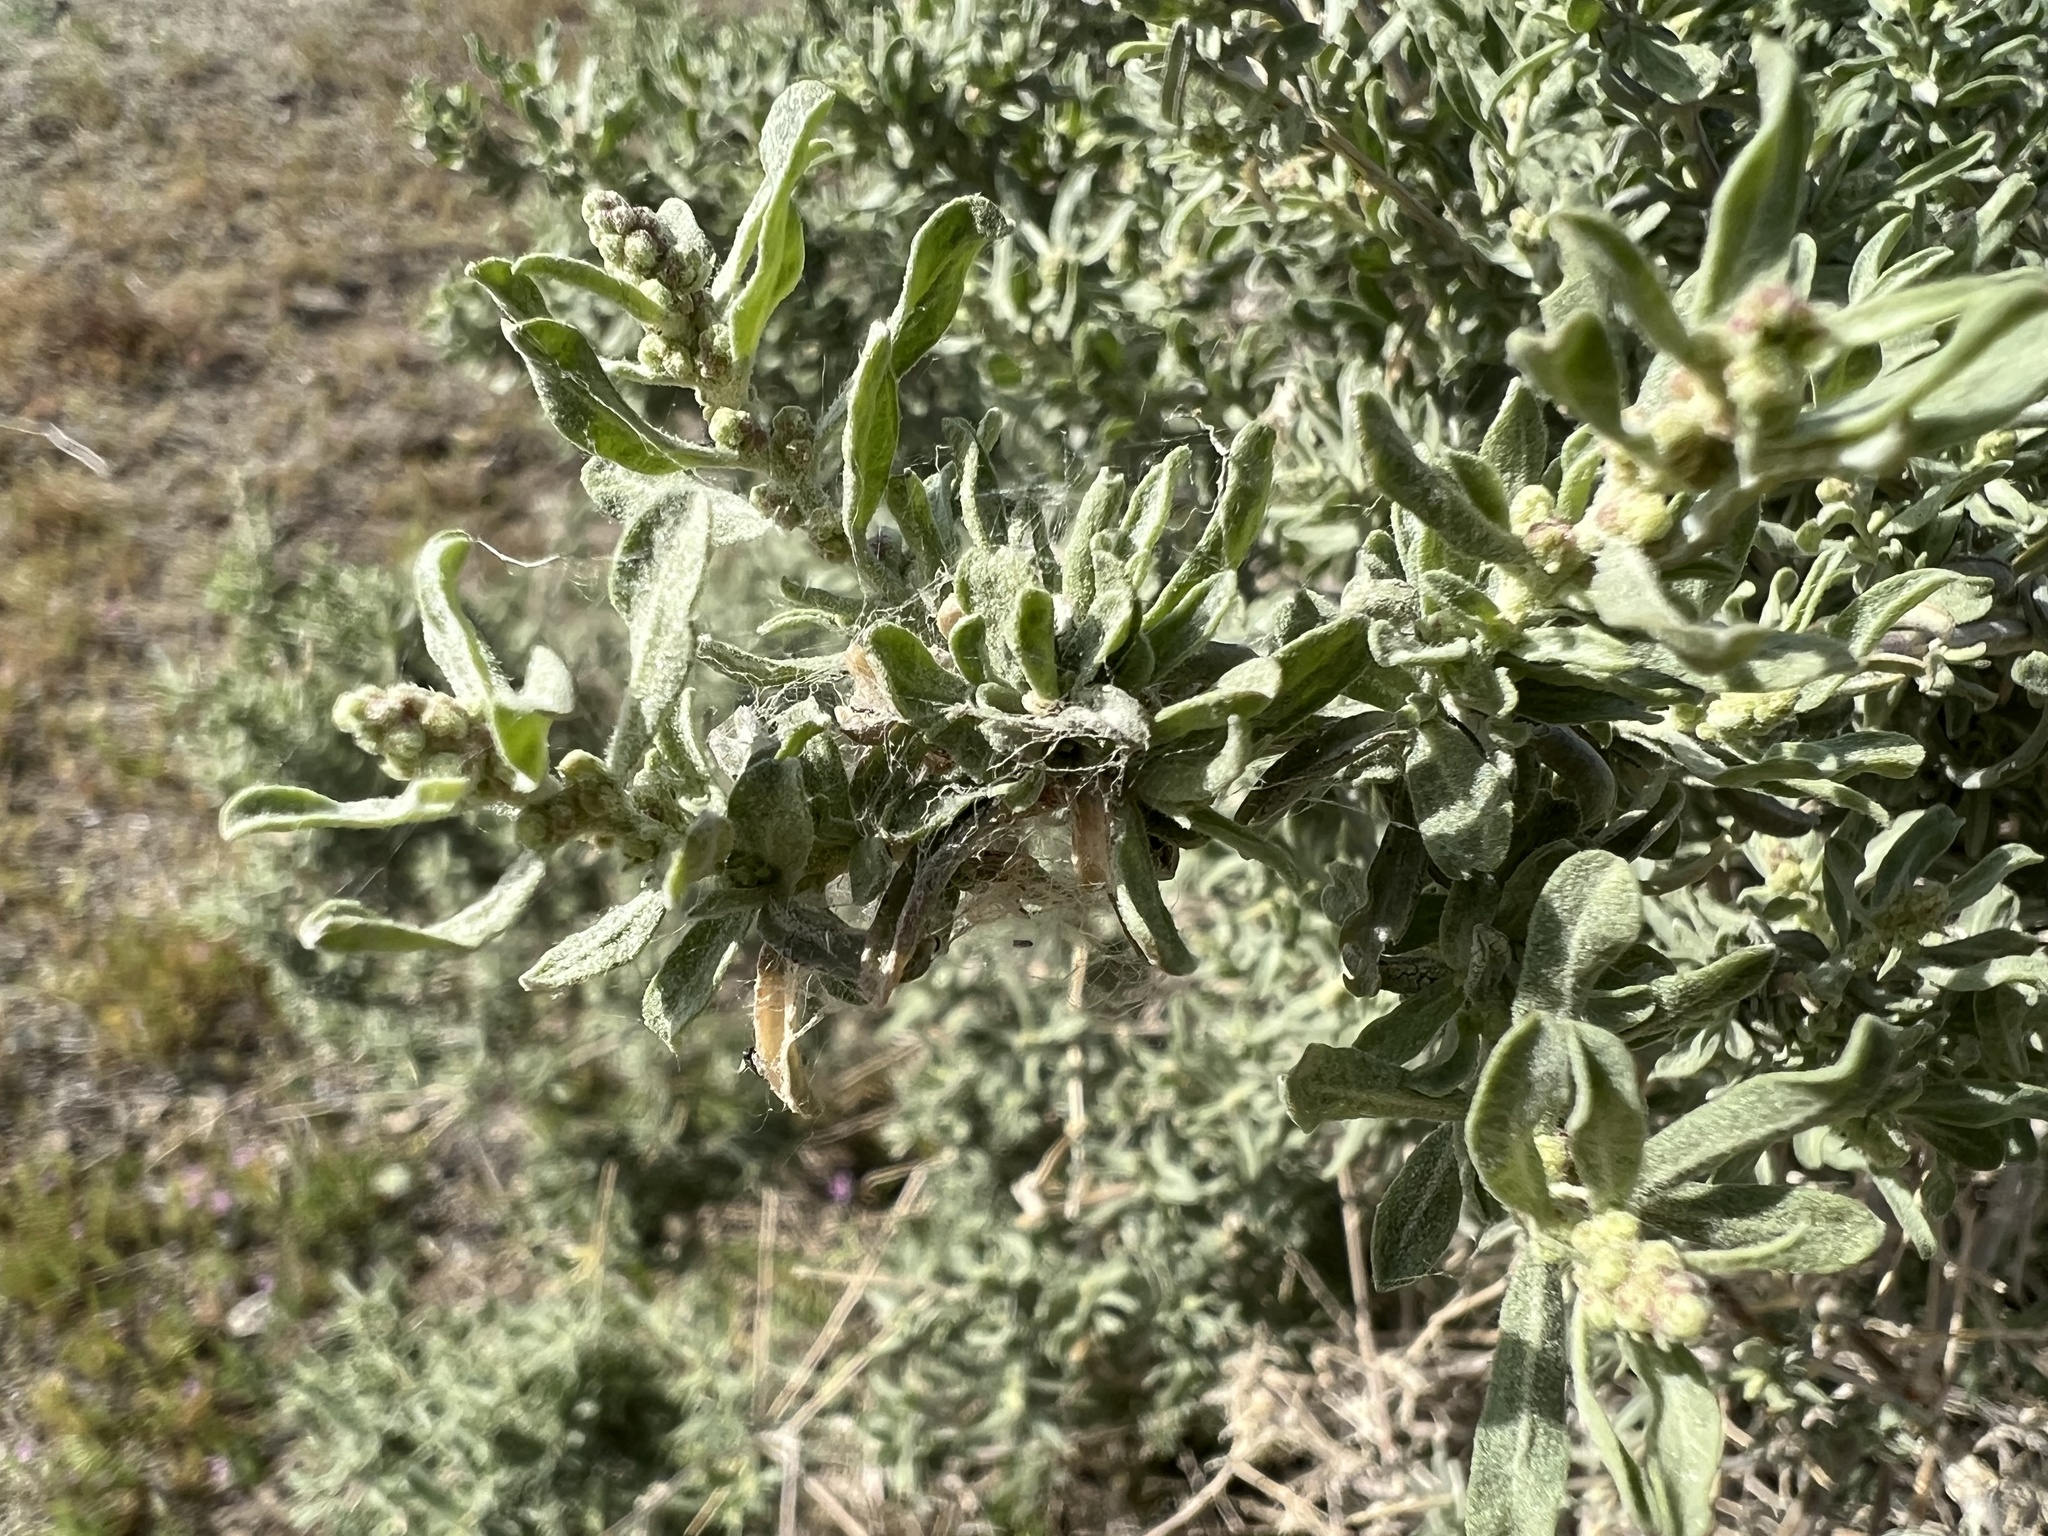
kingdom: Plantae
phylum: Tracheophyta
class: Magnoliopsida
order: Caryophyllales
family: Amaranthaceae
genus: Atriplex
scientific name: Atriplex canescens
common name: Four-wing saltbush
